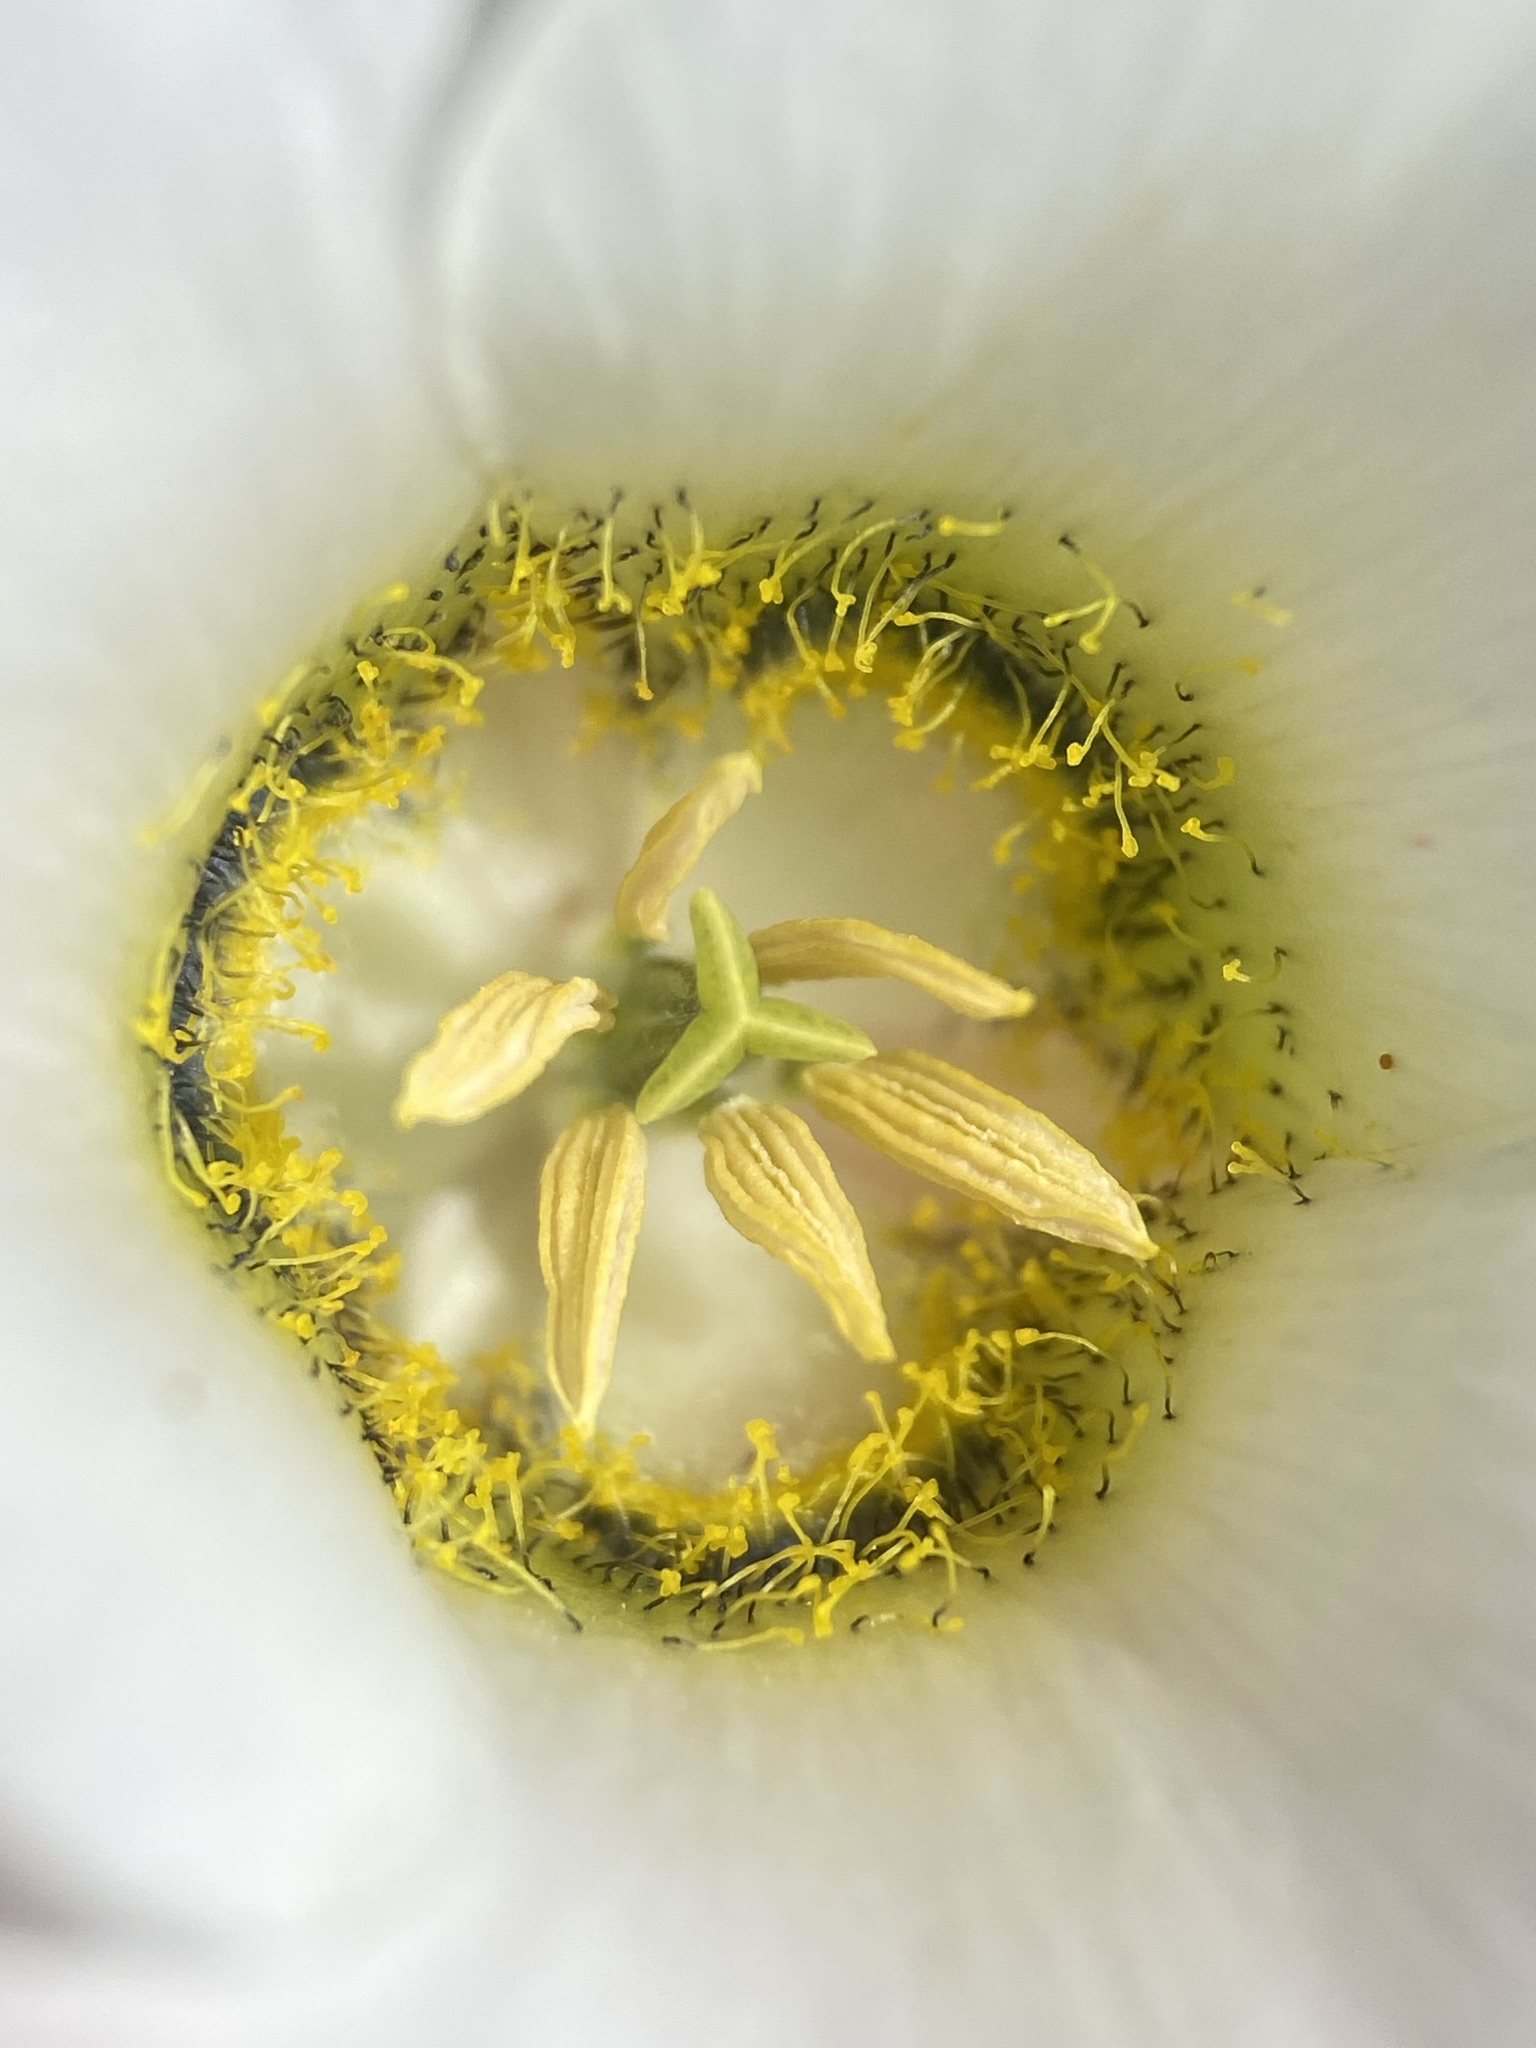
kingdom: Plantae
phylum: Tracheophyta
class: Liliopsida
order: Liliales
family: Liliaceae
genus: Calochortus
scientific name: Calochortus gunnisonii
